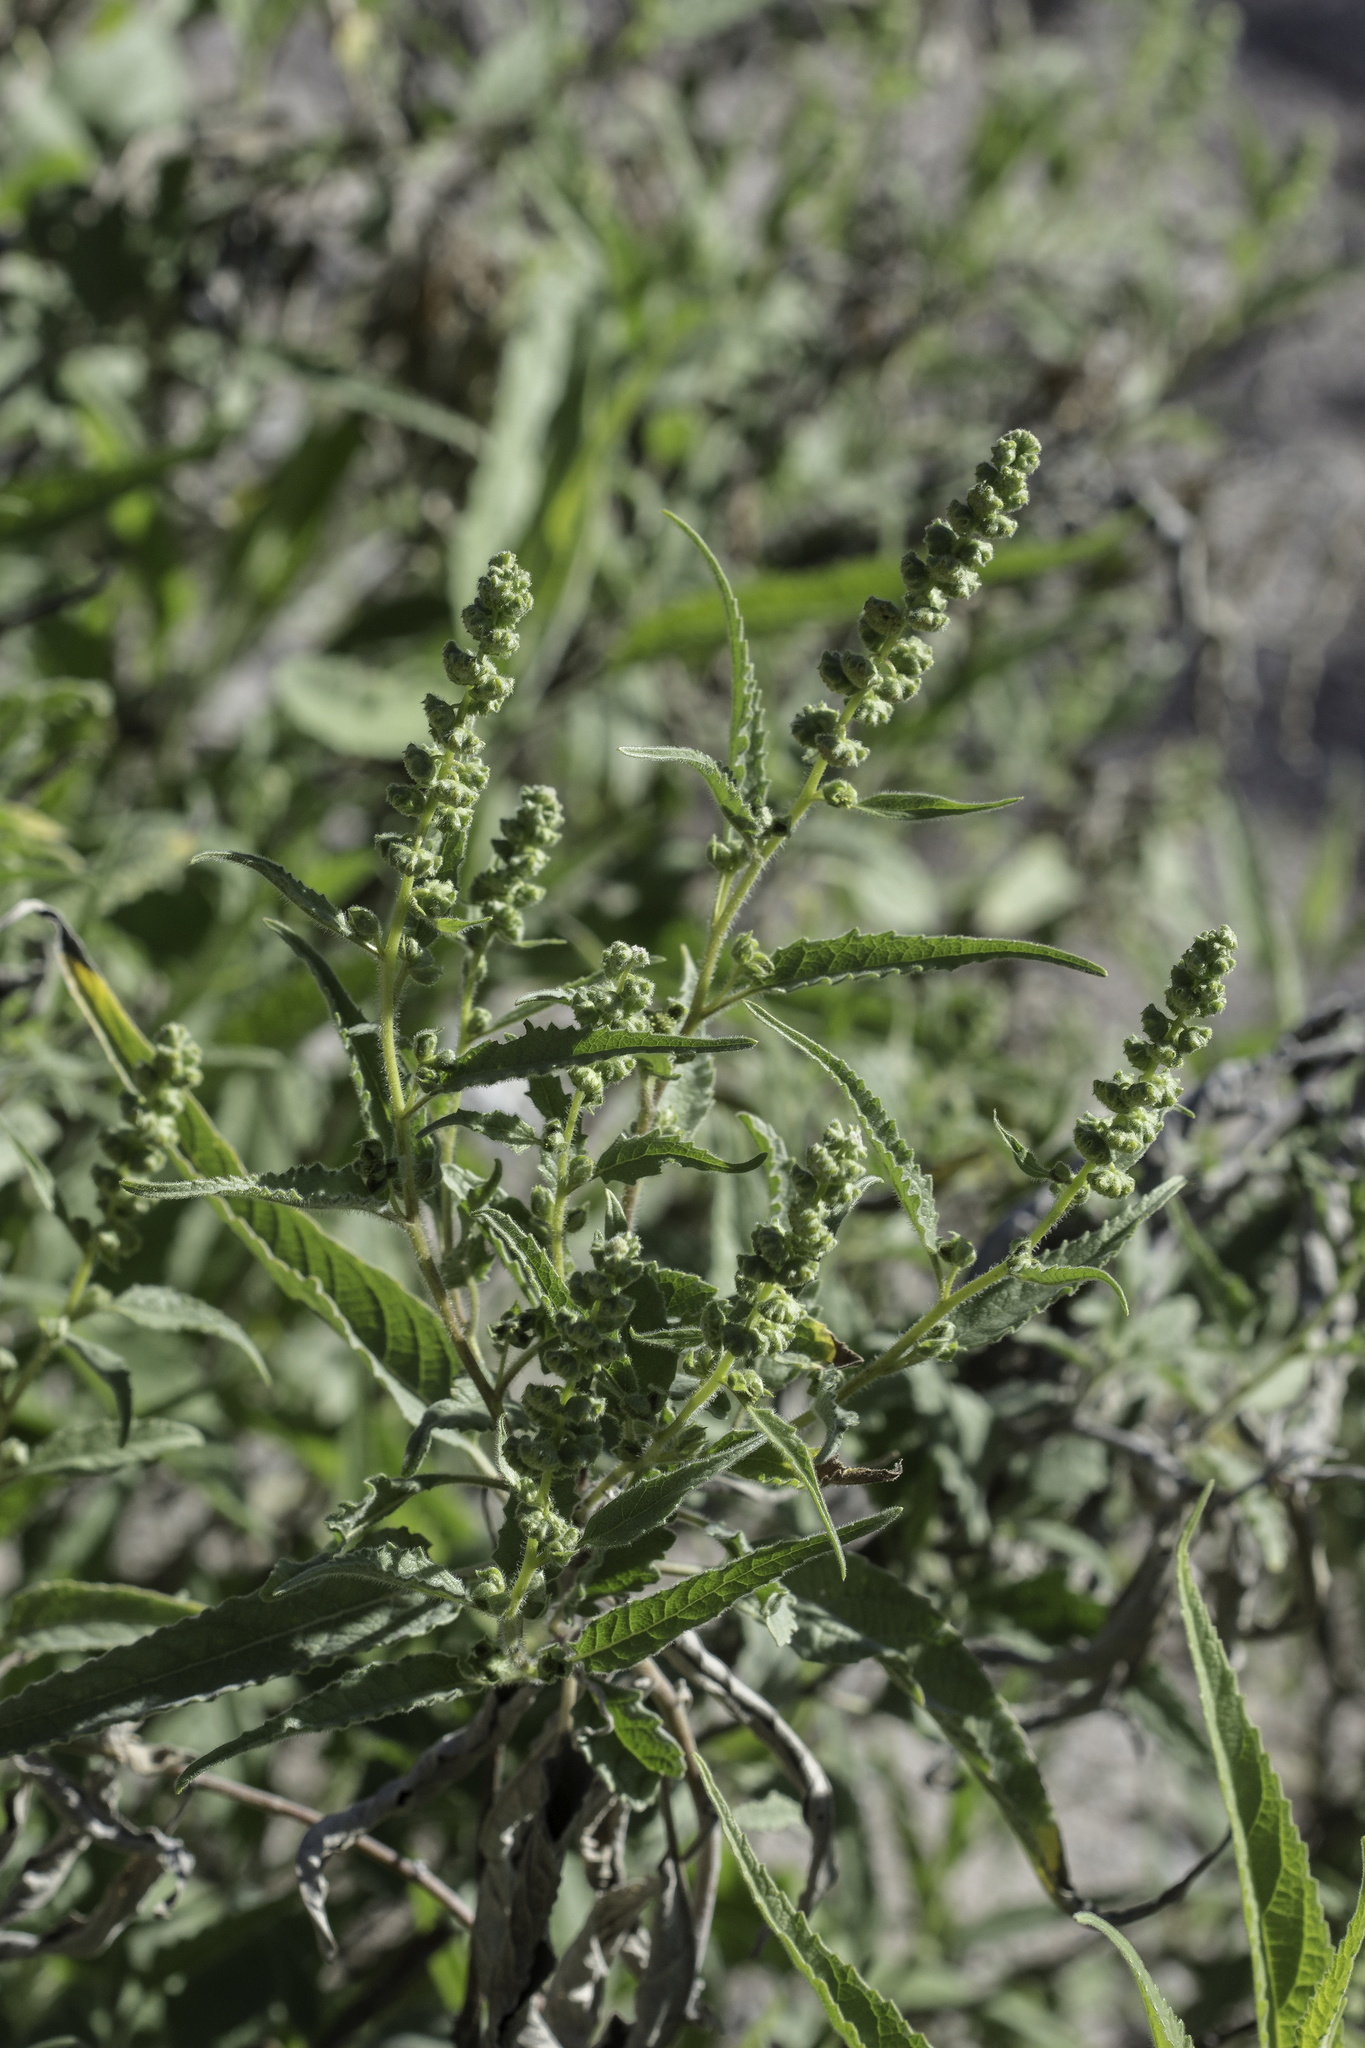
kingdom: Plantae
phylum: Tracheophyta
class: Magnoliopsida
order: Asterales
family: Asteraceae
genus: Ambrosia
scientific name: Ambrosia ambrosioides
